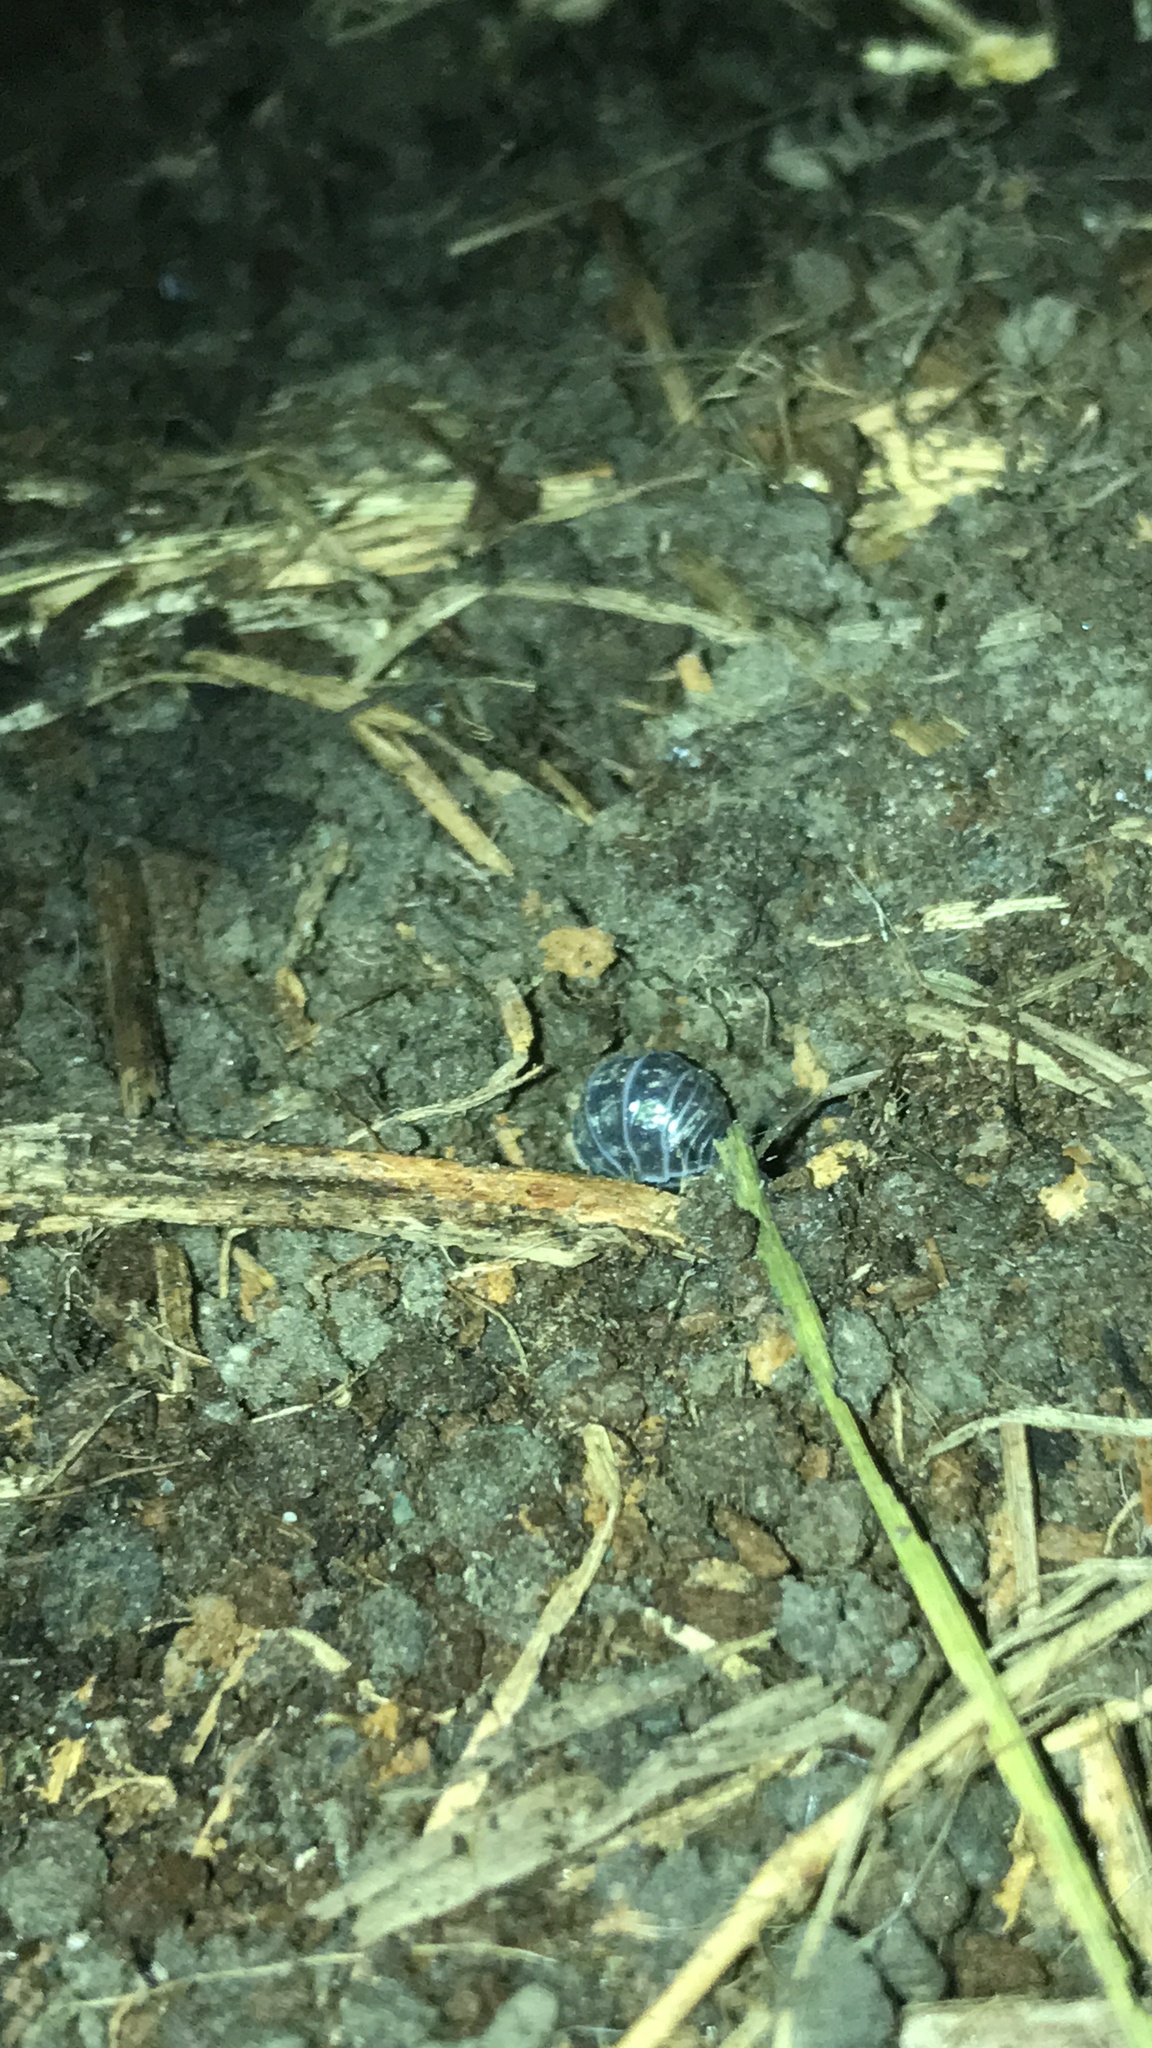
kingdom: Animalia
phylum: Arthropoda
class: Malacostraca
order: Isopoda
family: Armadillidiidae
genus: Armadillidium
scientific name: Armadillidium vulgare
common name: Common pill woodlouse
